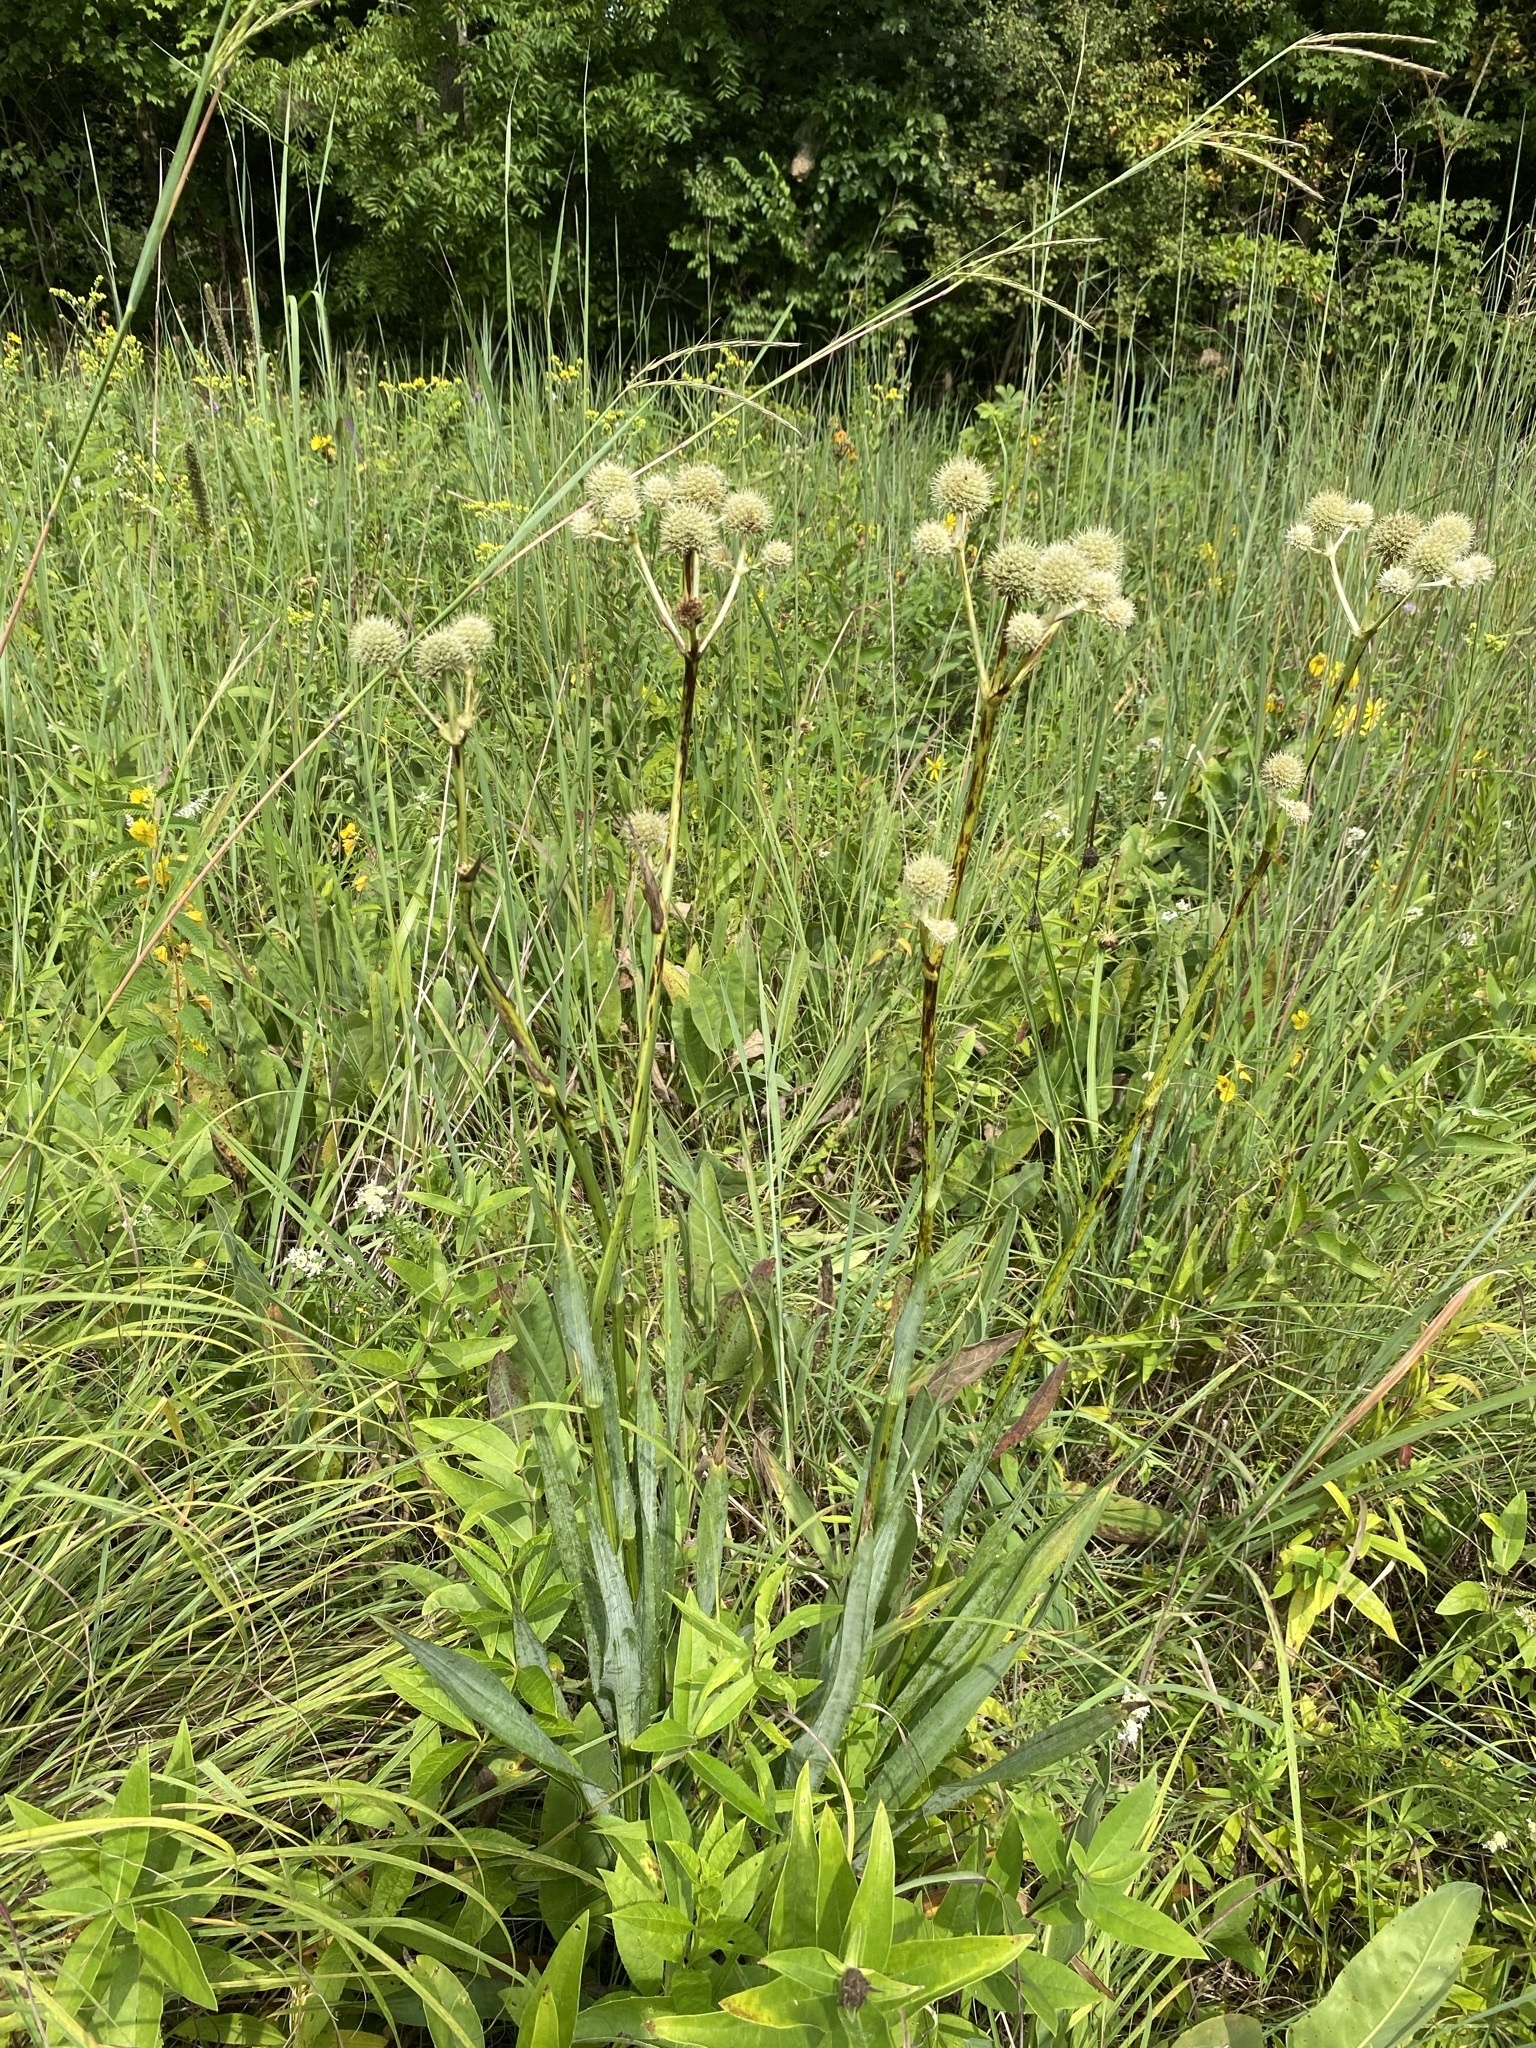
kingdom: Plantae
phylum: Tracheophyta
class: Magnoliopsida
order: Apiales
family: Apiaceae
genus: Eryngium
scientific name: Eryngium yuccifolium
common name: Button eryngo
